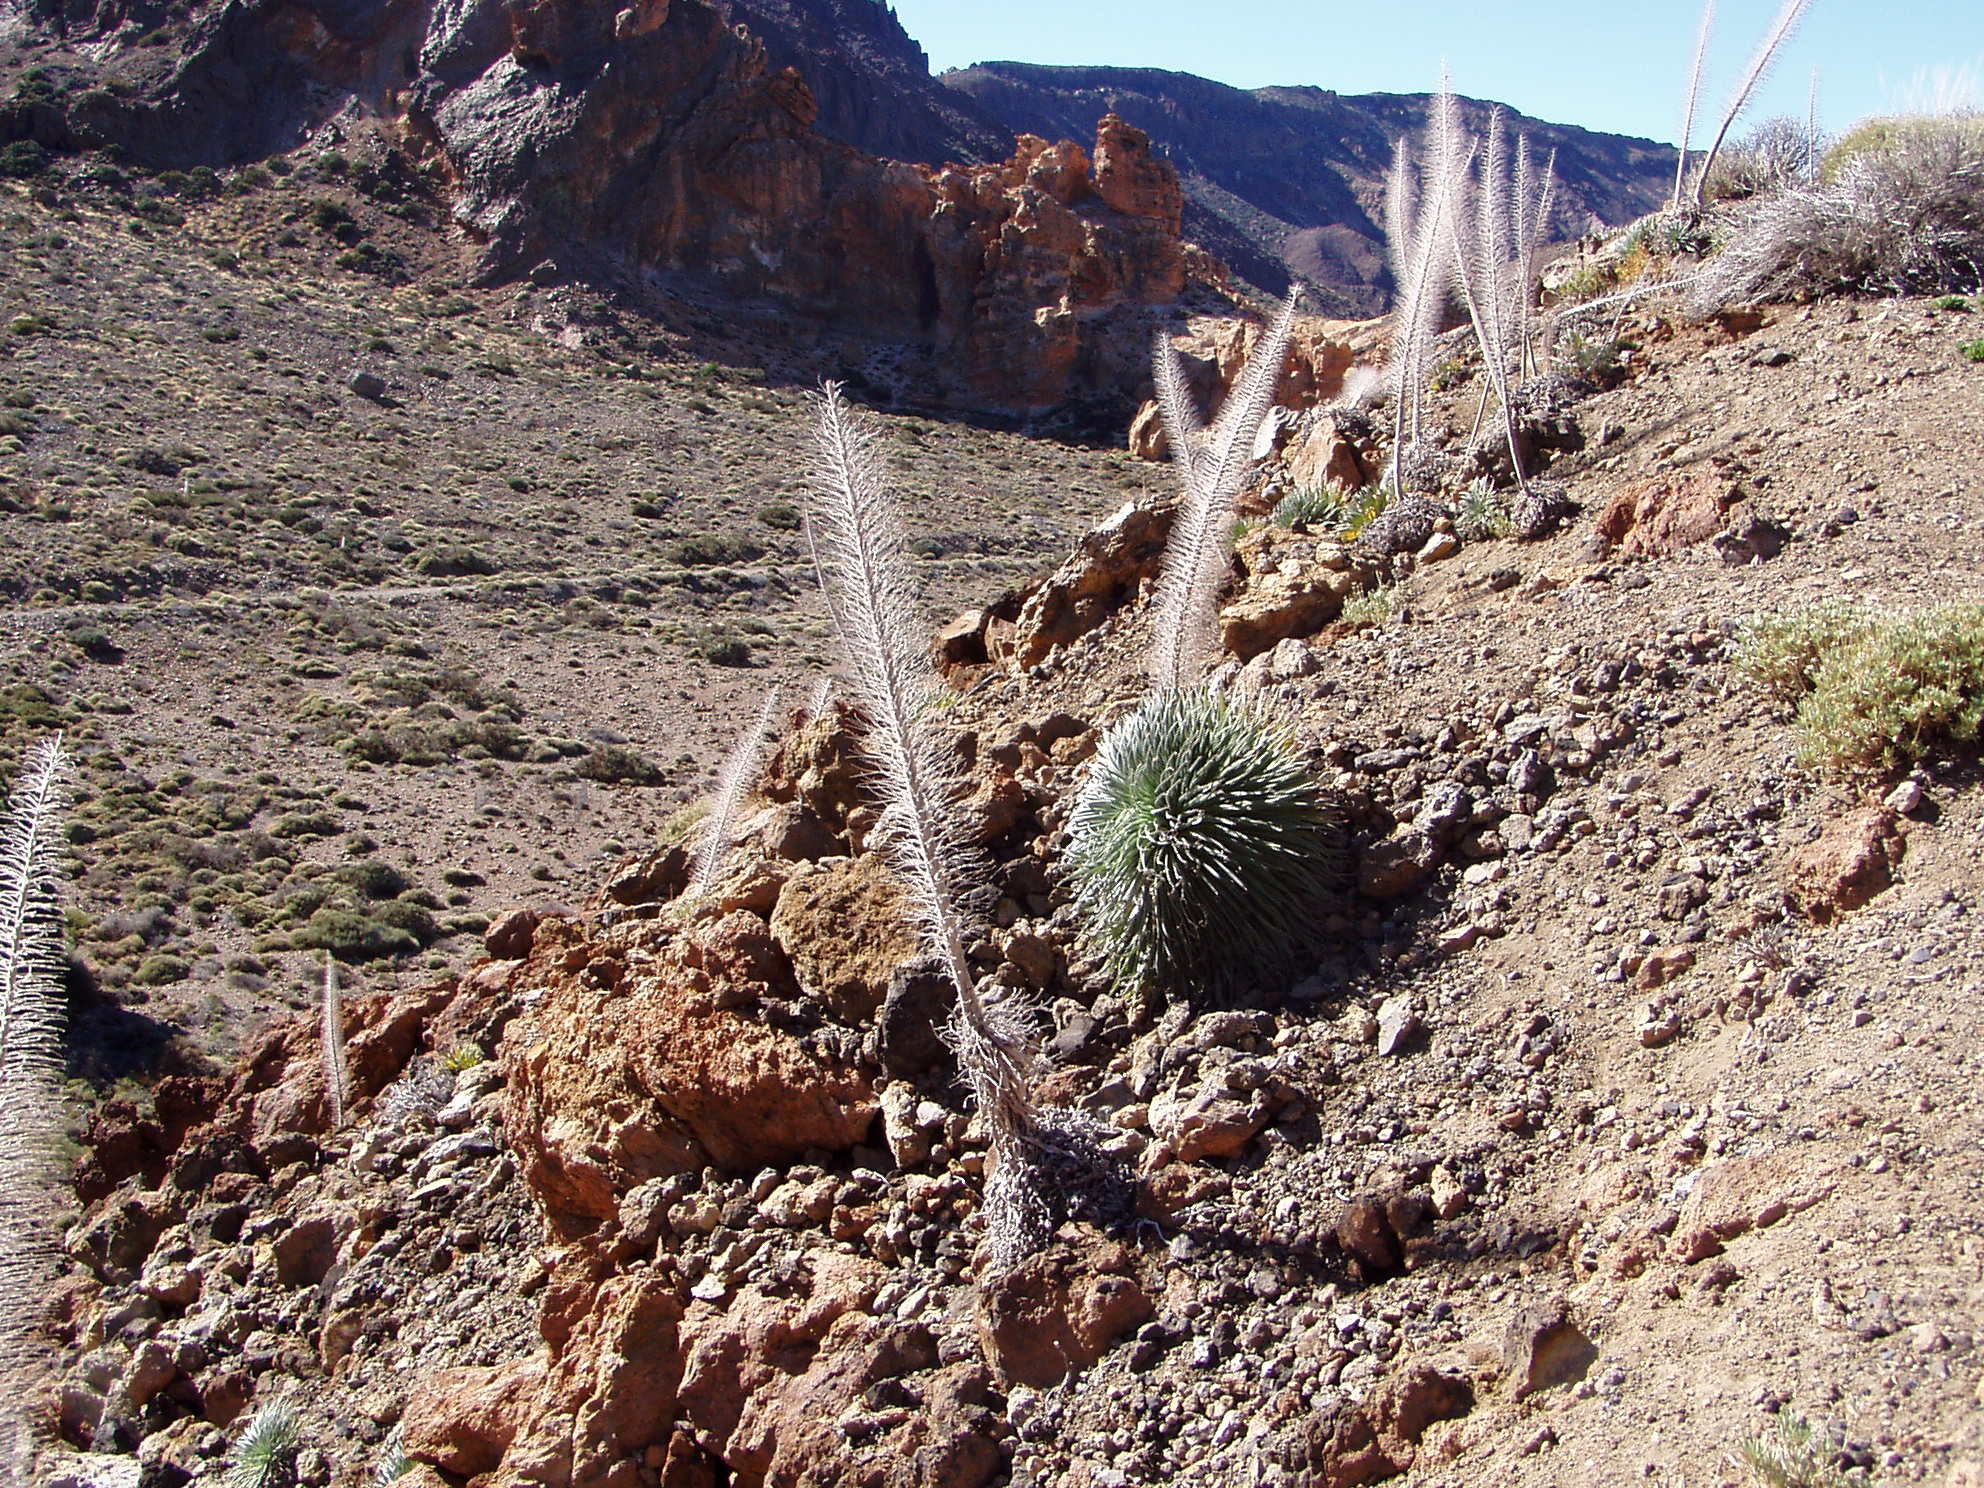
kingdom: Plantae
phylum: Tracheophyta
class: Magnoliopsida
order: Boraginales
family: Boraginaceae
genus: Echium
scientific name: Echium wildpretii
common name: Tower-of-jewels
